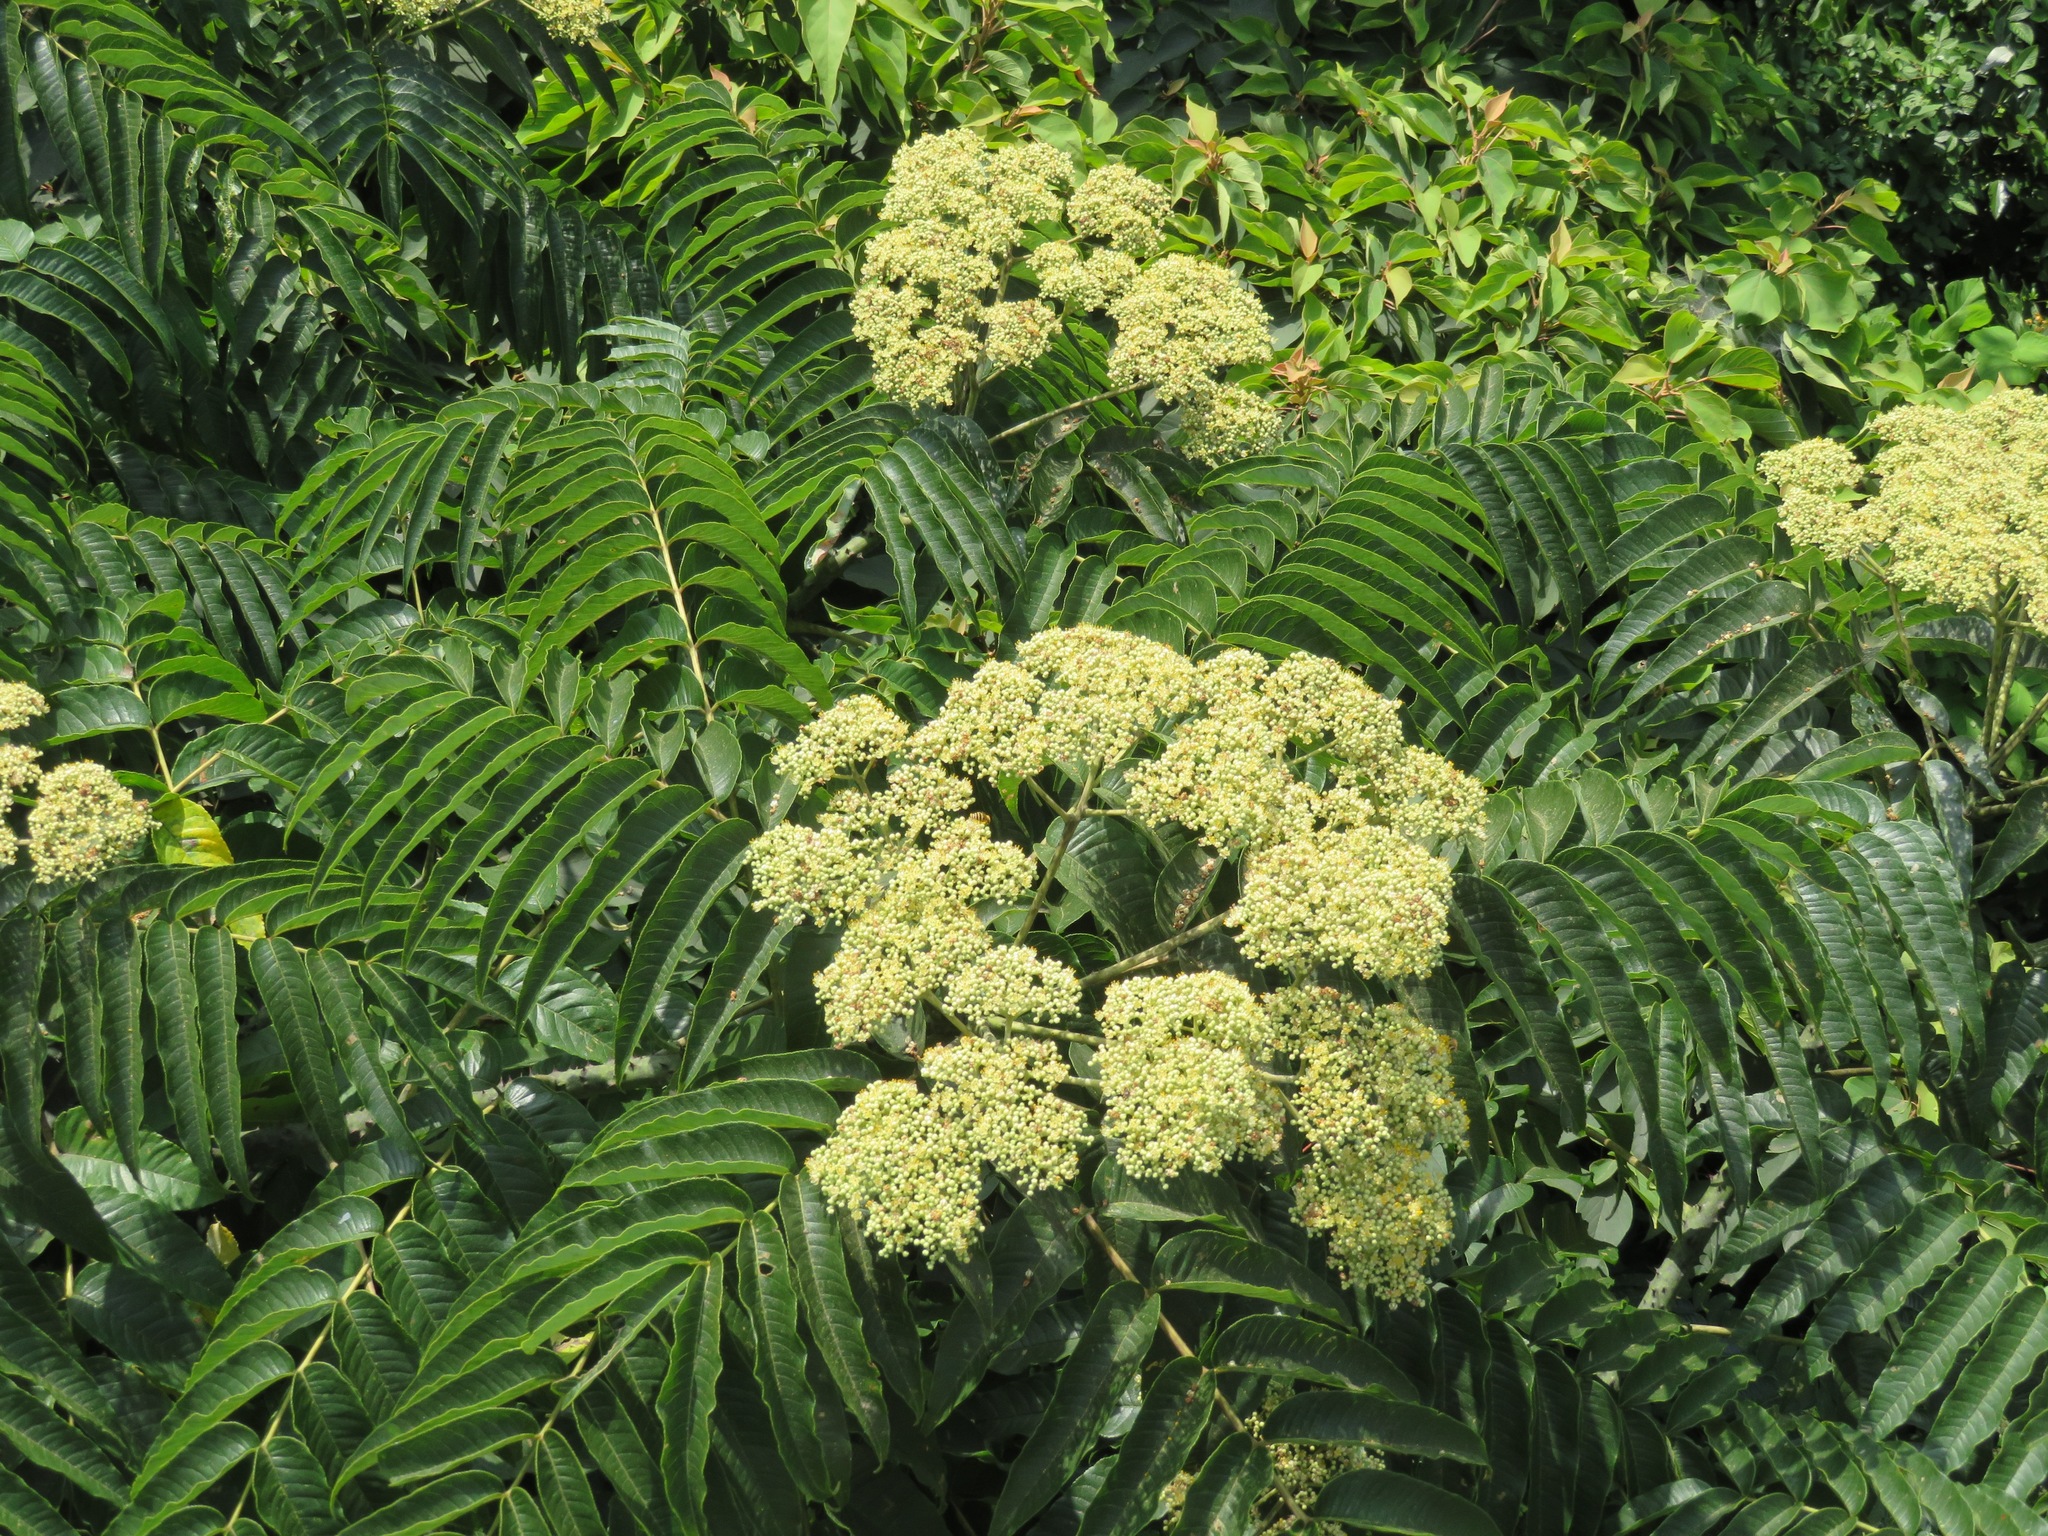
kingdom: Plantae
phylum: Tracheophyta
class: Magnoliopsida
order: Sapindales
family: Rutaceae
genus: Zanthoxylum
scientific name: Zanthoxylum ailanthoides
